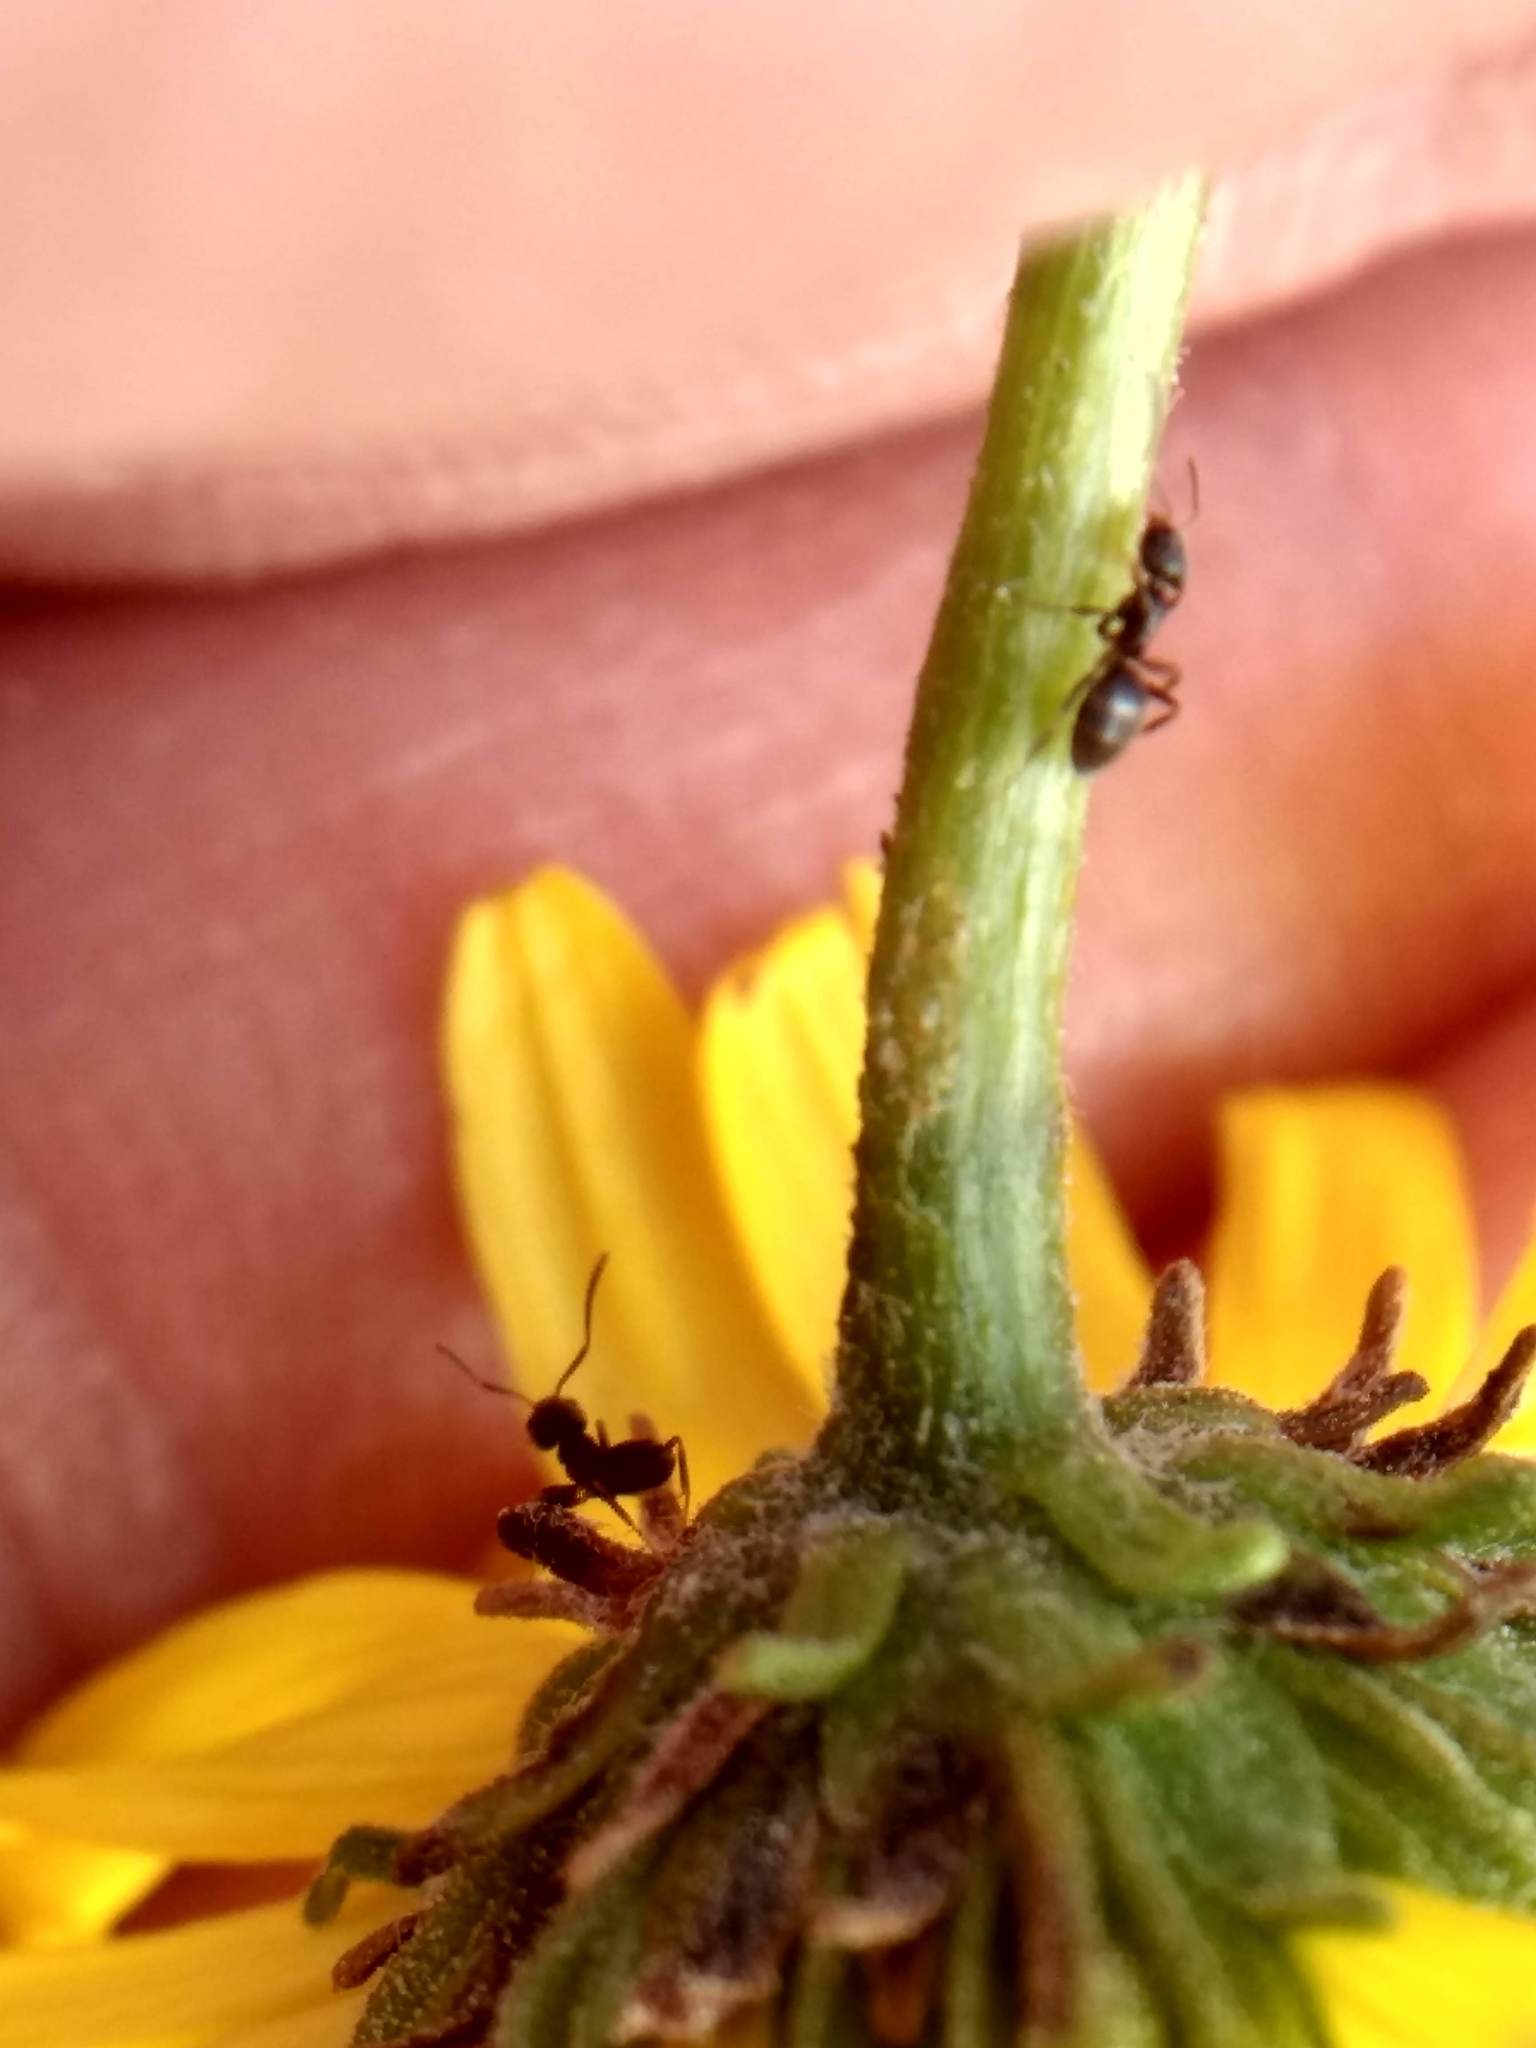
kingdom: Animalia
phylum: Arthropoda
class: Insecta
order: Hymenoptera
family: Formicidae
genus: Tapinoma
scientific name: Tapinoma sessile
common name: Odorous house ant
